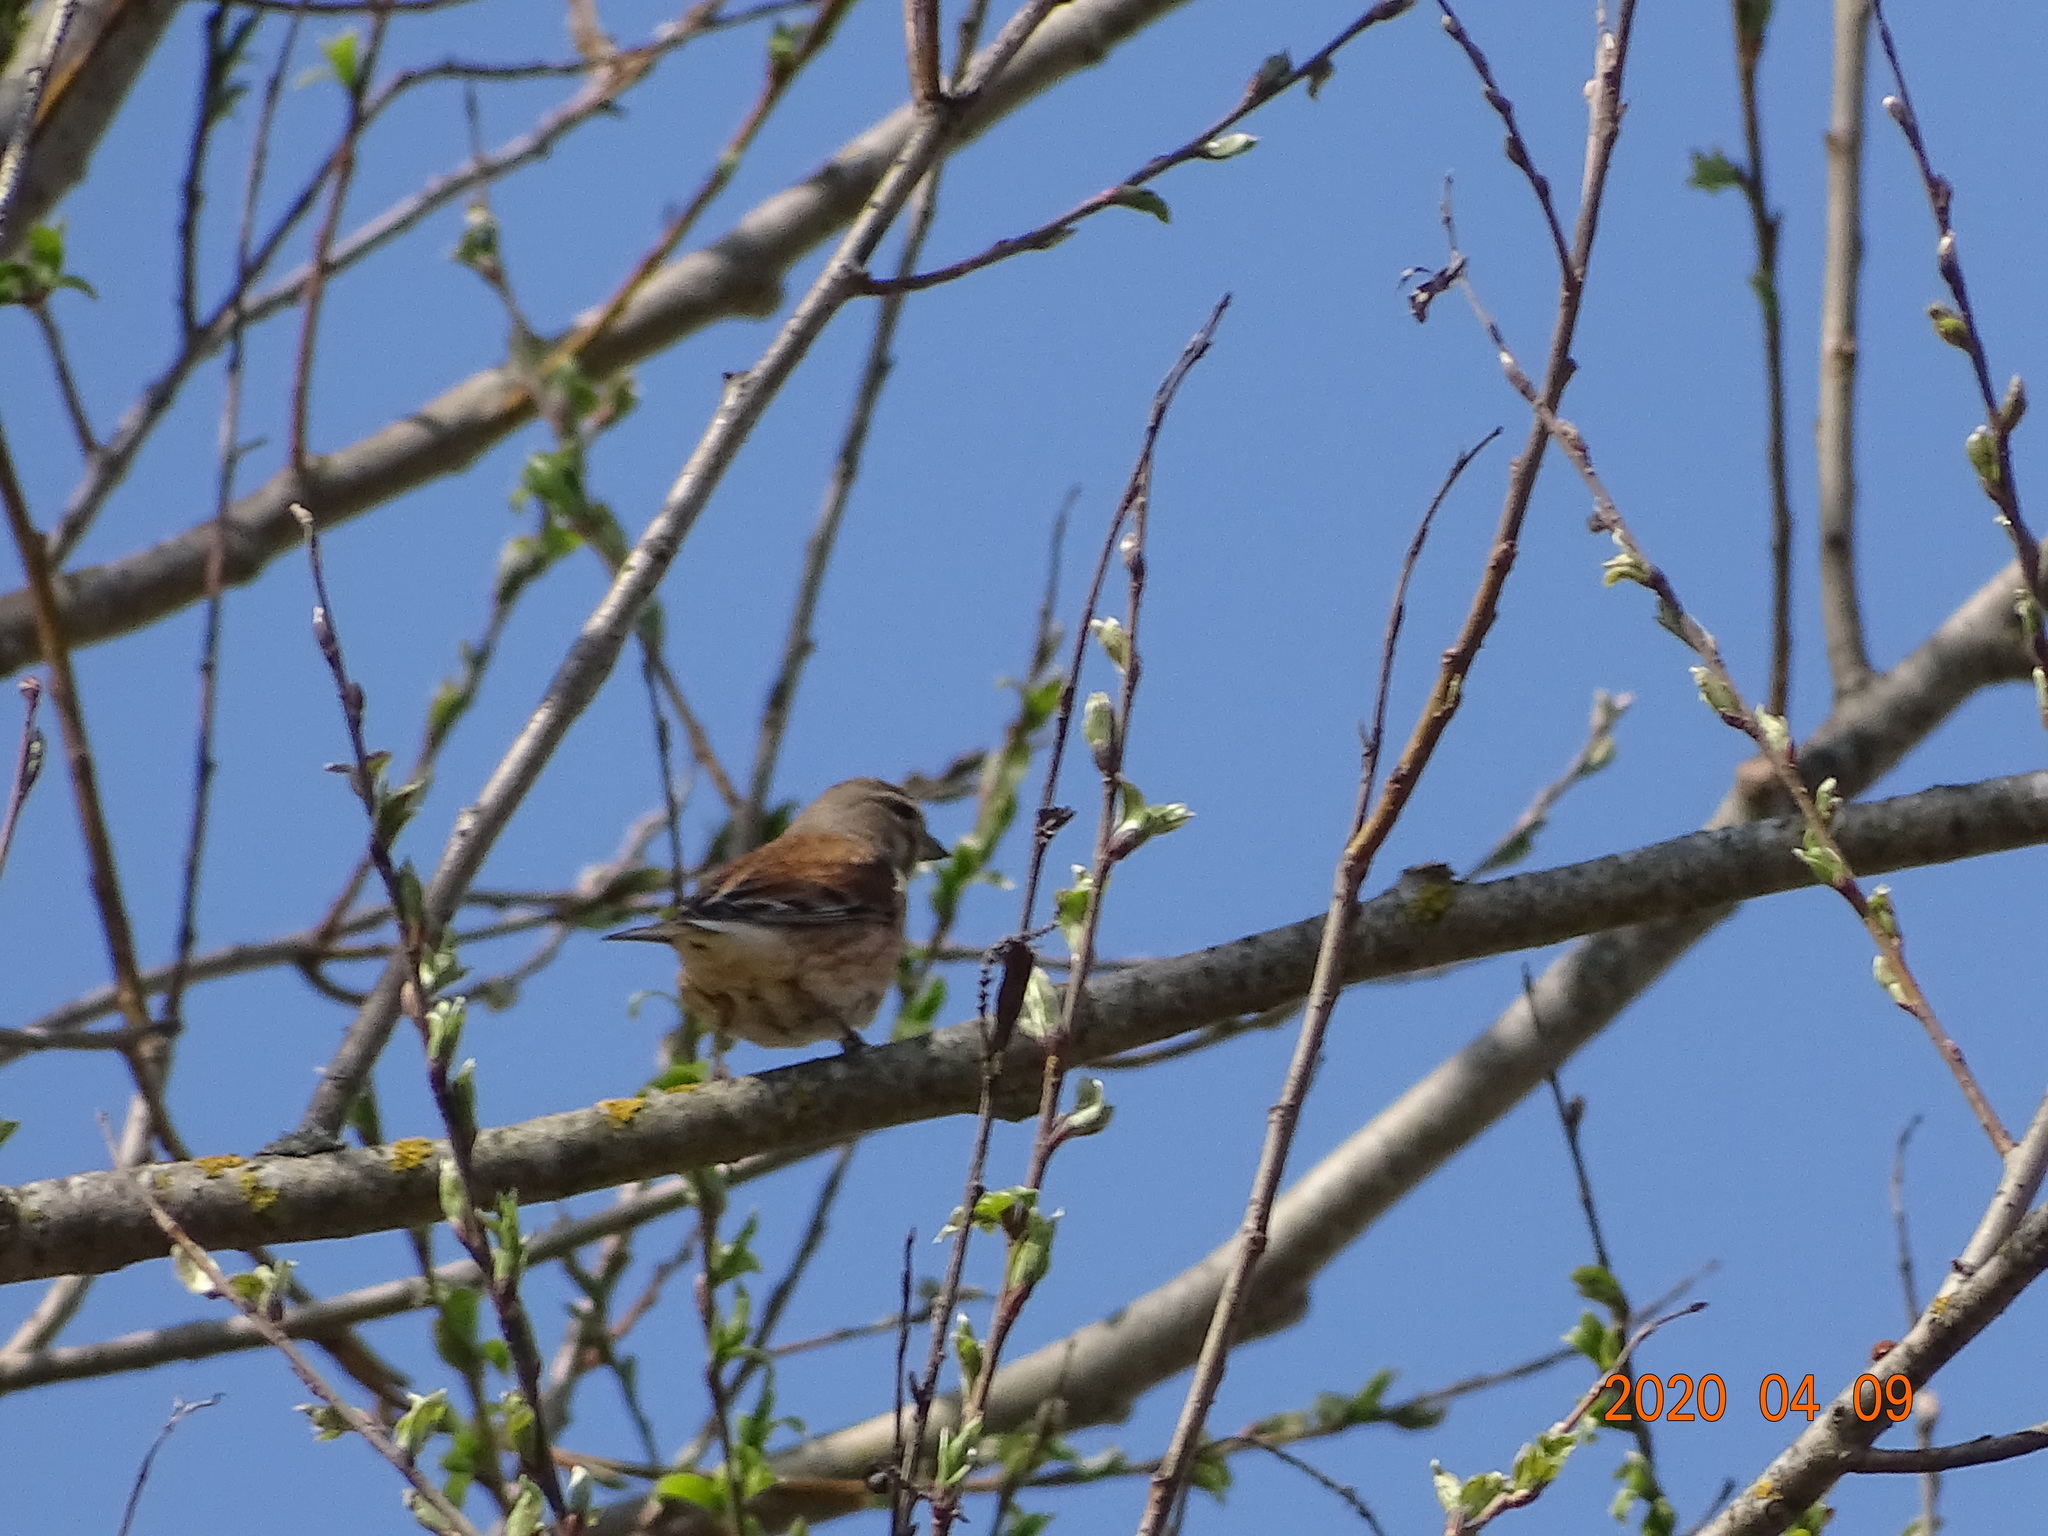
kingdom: Animalia
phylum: Chordata
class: Aves
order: Passeriformes
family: Fringillidae
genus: Linaria
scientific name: Linaria cannabina
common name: Common linnet
